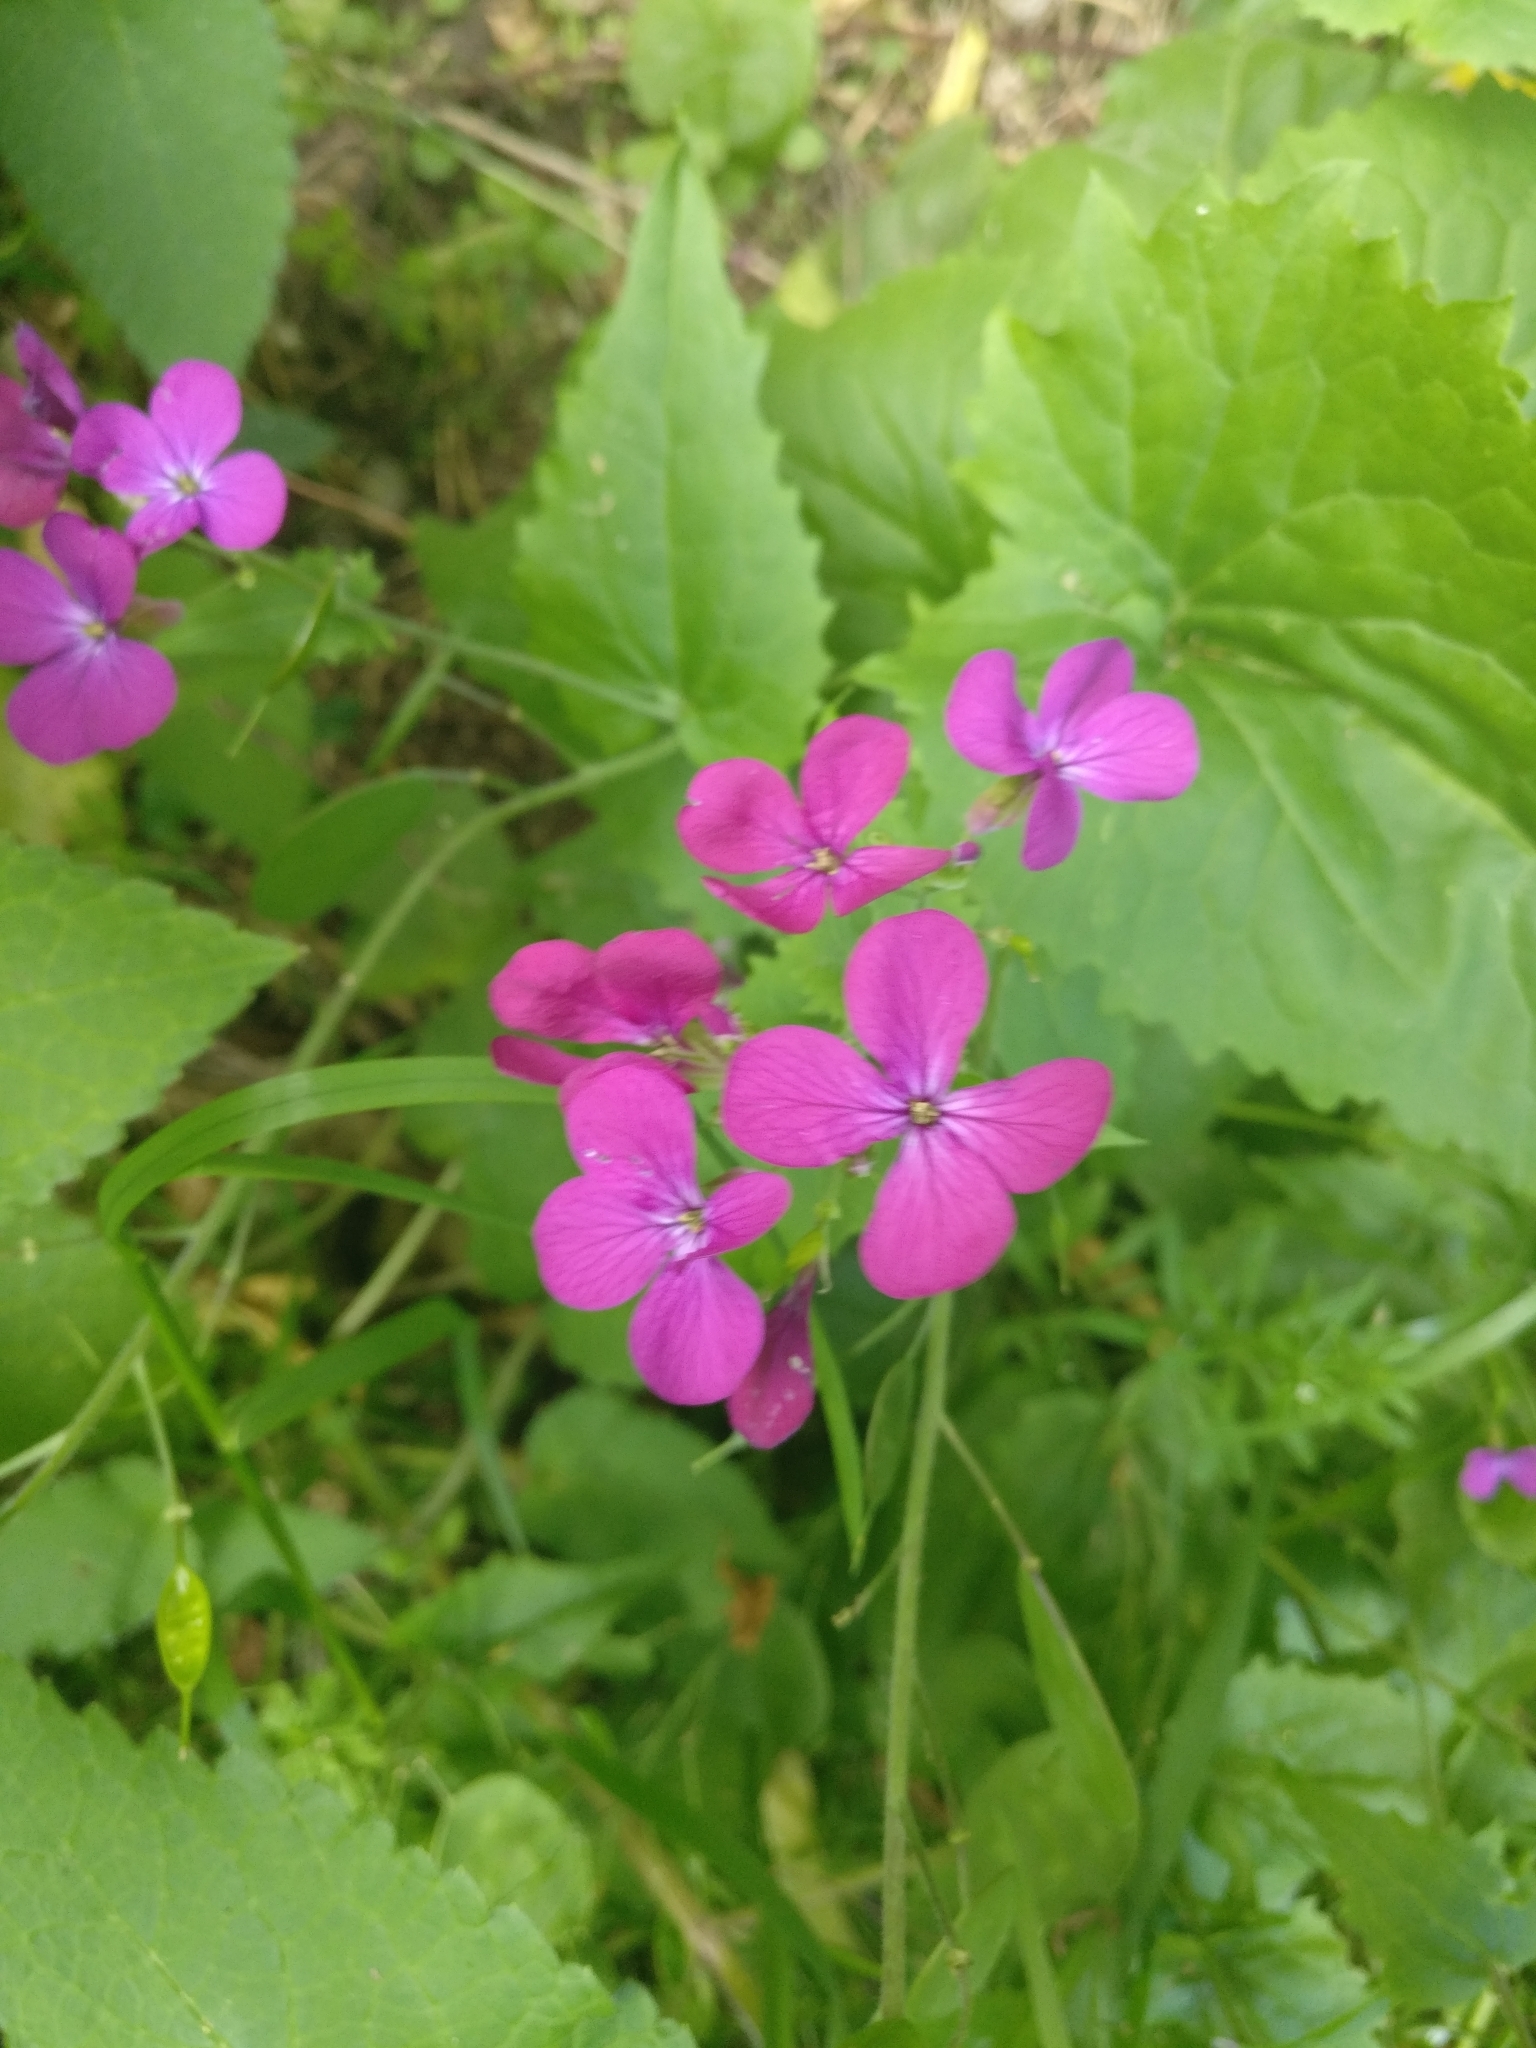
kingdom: Plantae
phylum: Tracheophyta
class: Magnoliopsida
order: Brassicales
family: Brassicaceae
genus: Lunaria
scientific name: Lunaria annua
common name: Honesty
